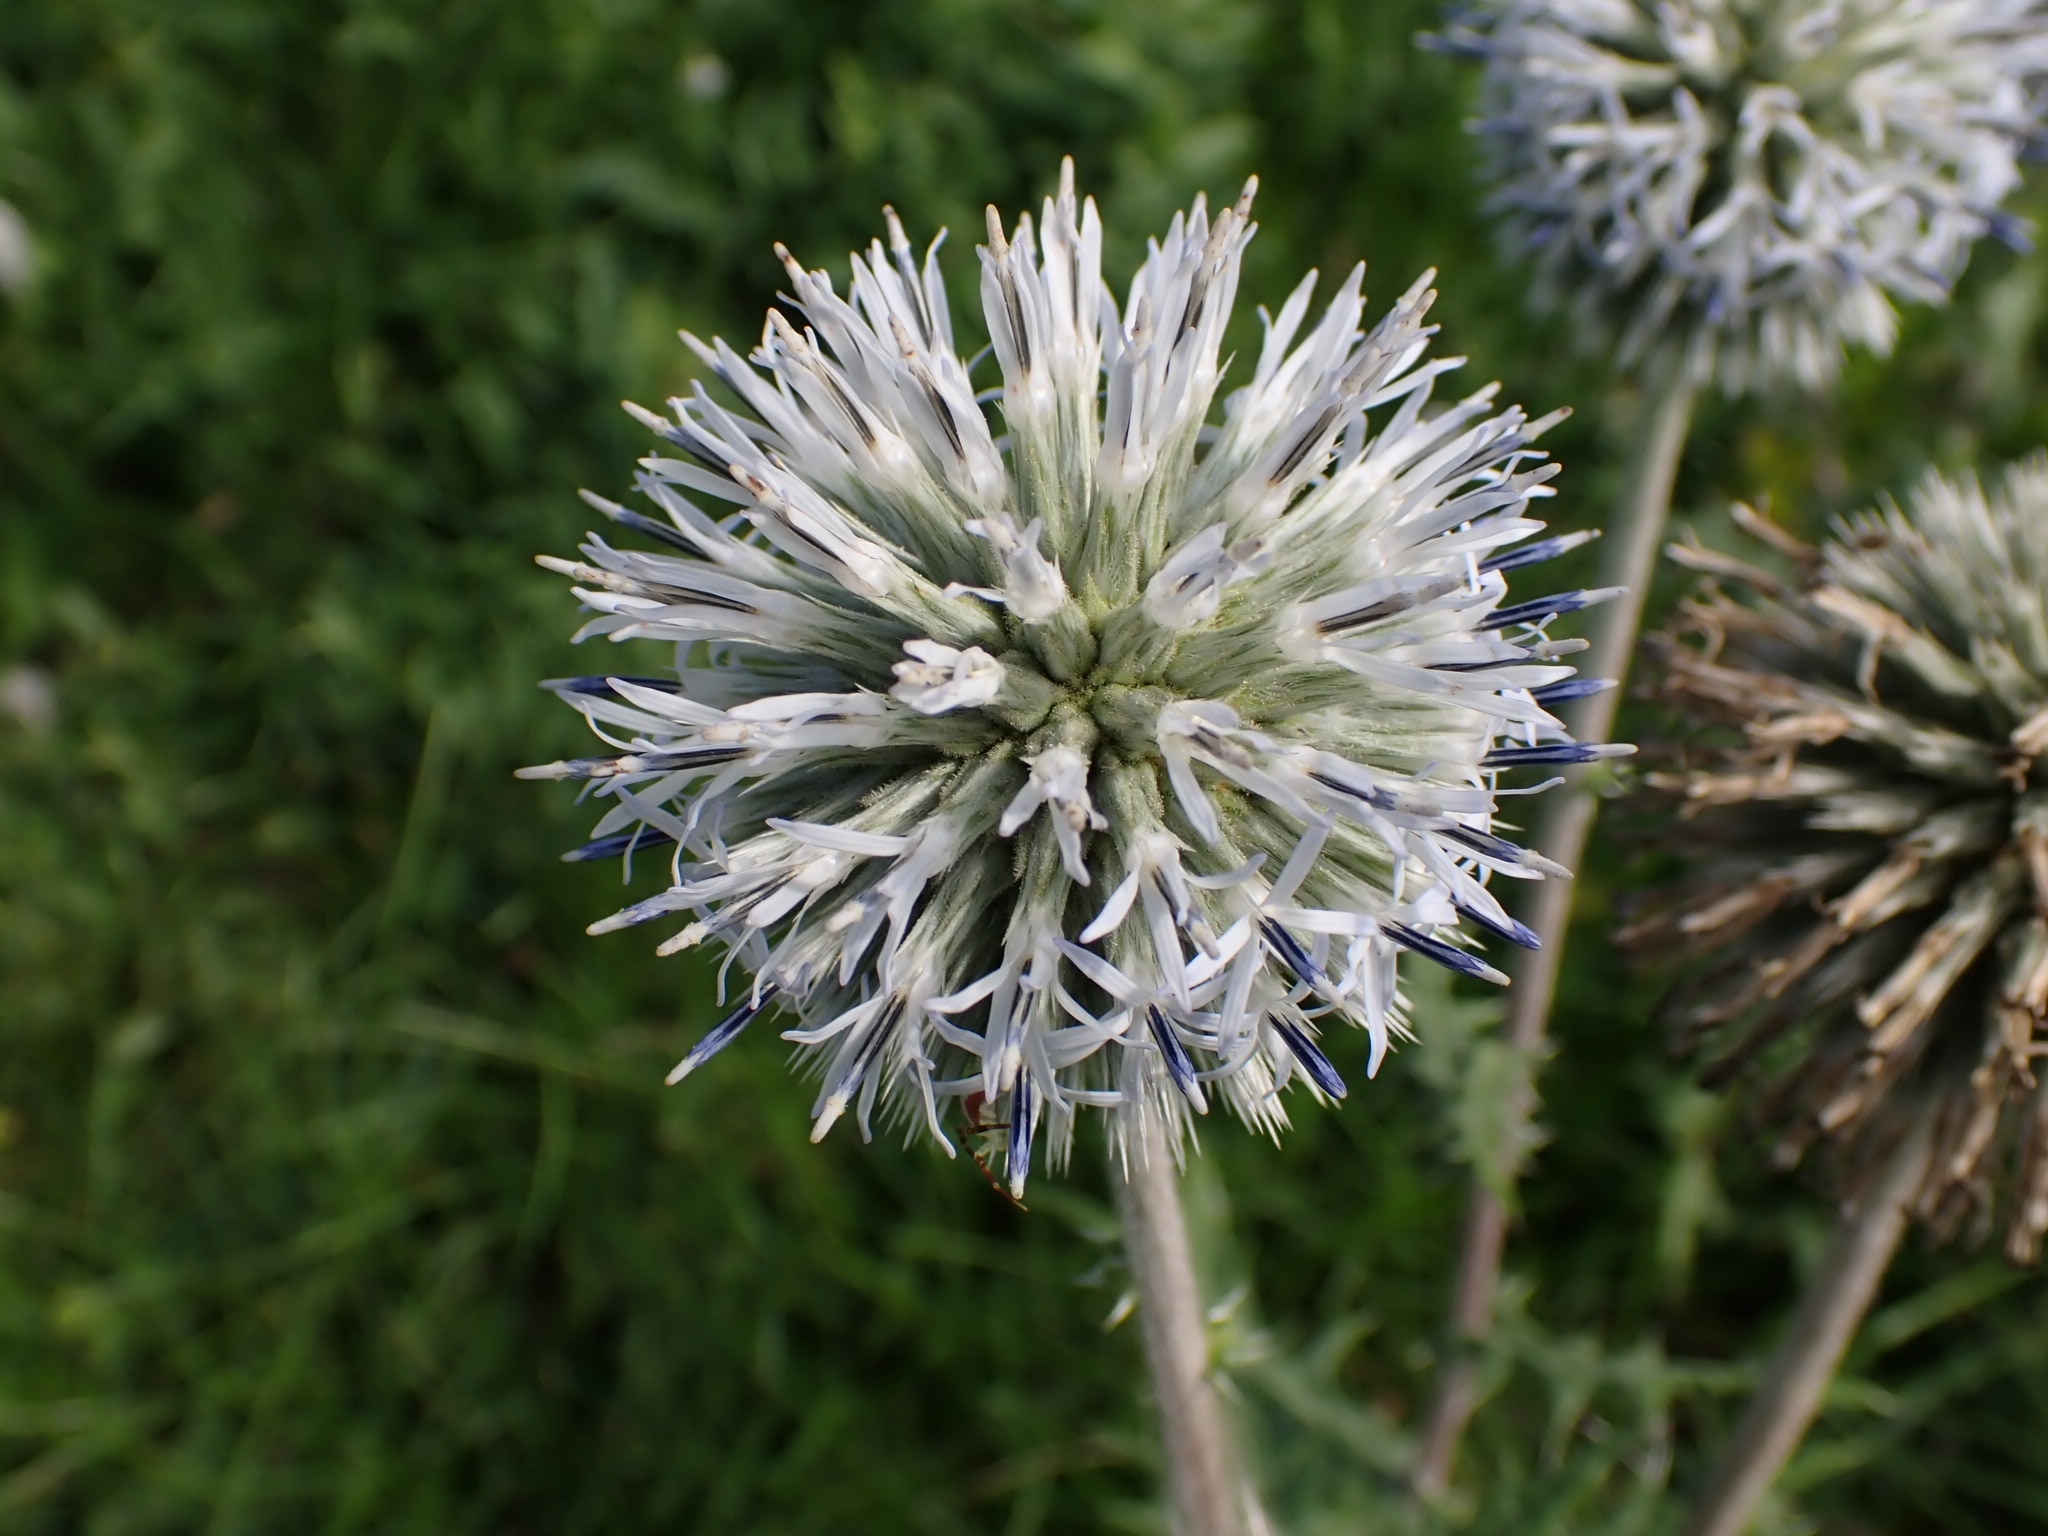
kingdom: Plantae
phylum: Tracheophyta
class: Magnoliopsida
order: Asterales
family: Asteraceae
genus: Echinops
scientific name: Echinops sphaerocephalus
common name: Glandular globe-thistle
